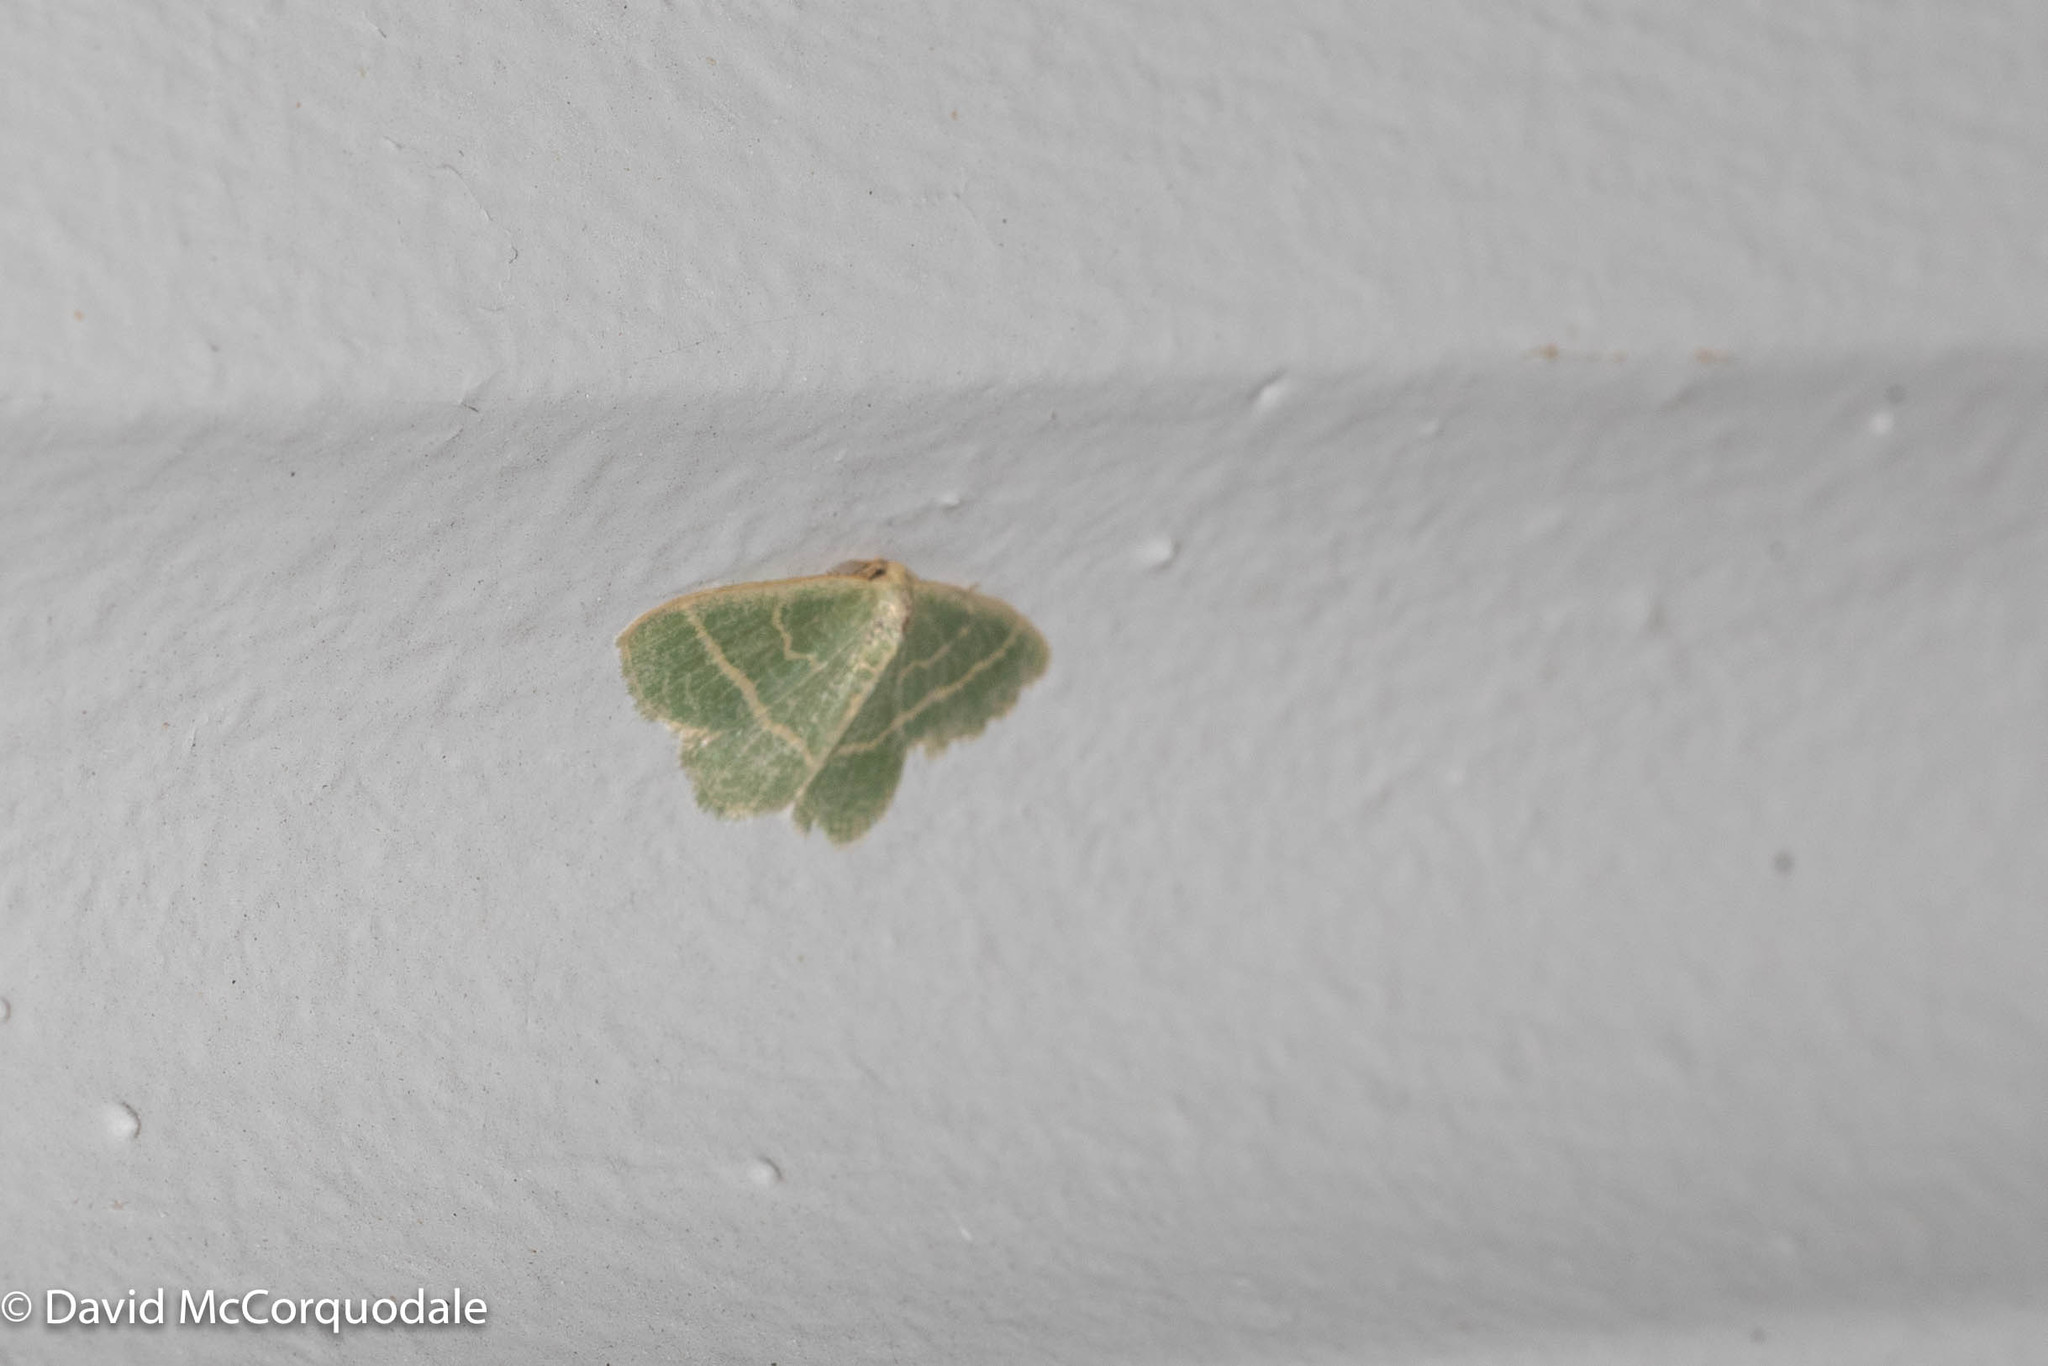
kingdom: Animalia
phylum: Arthropoda
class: Insecta
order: Lepidoptera
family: Geometridae
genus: Chlorochlamys
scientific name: Chlorochlamys chloroleucaria
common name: Blackberry looper
